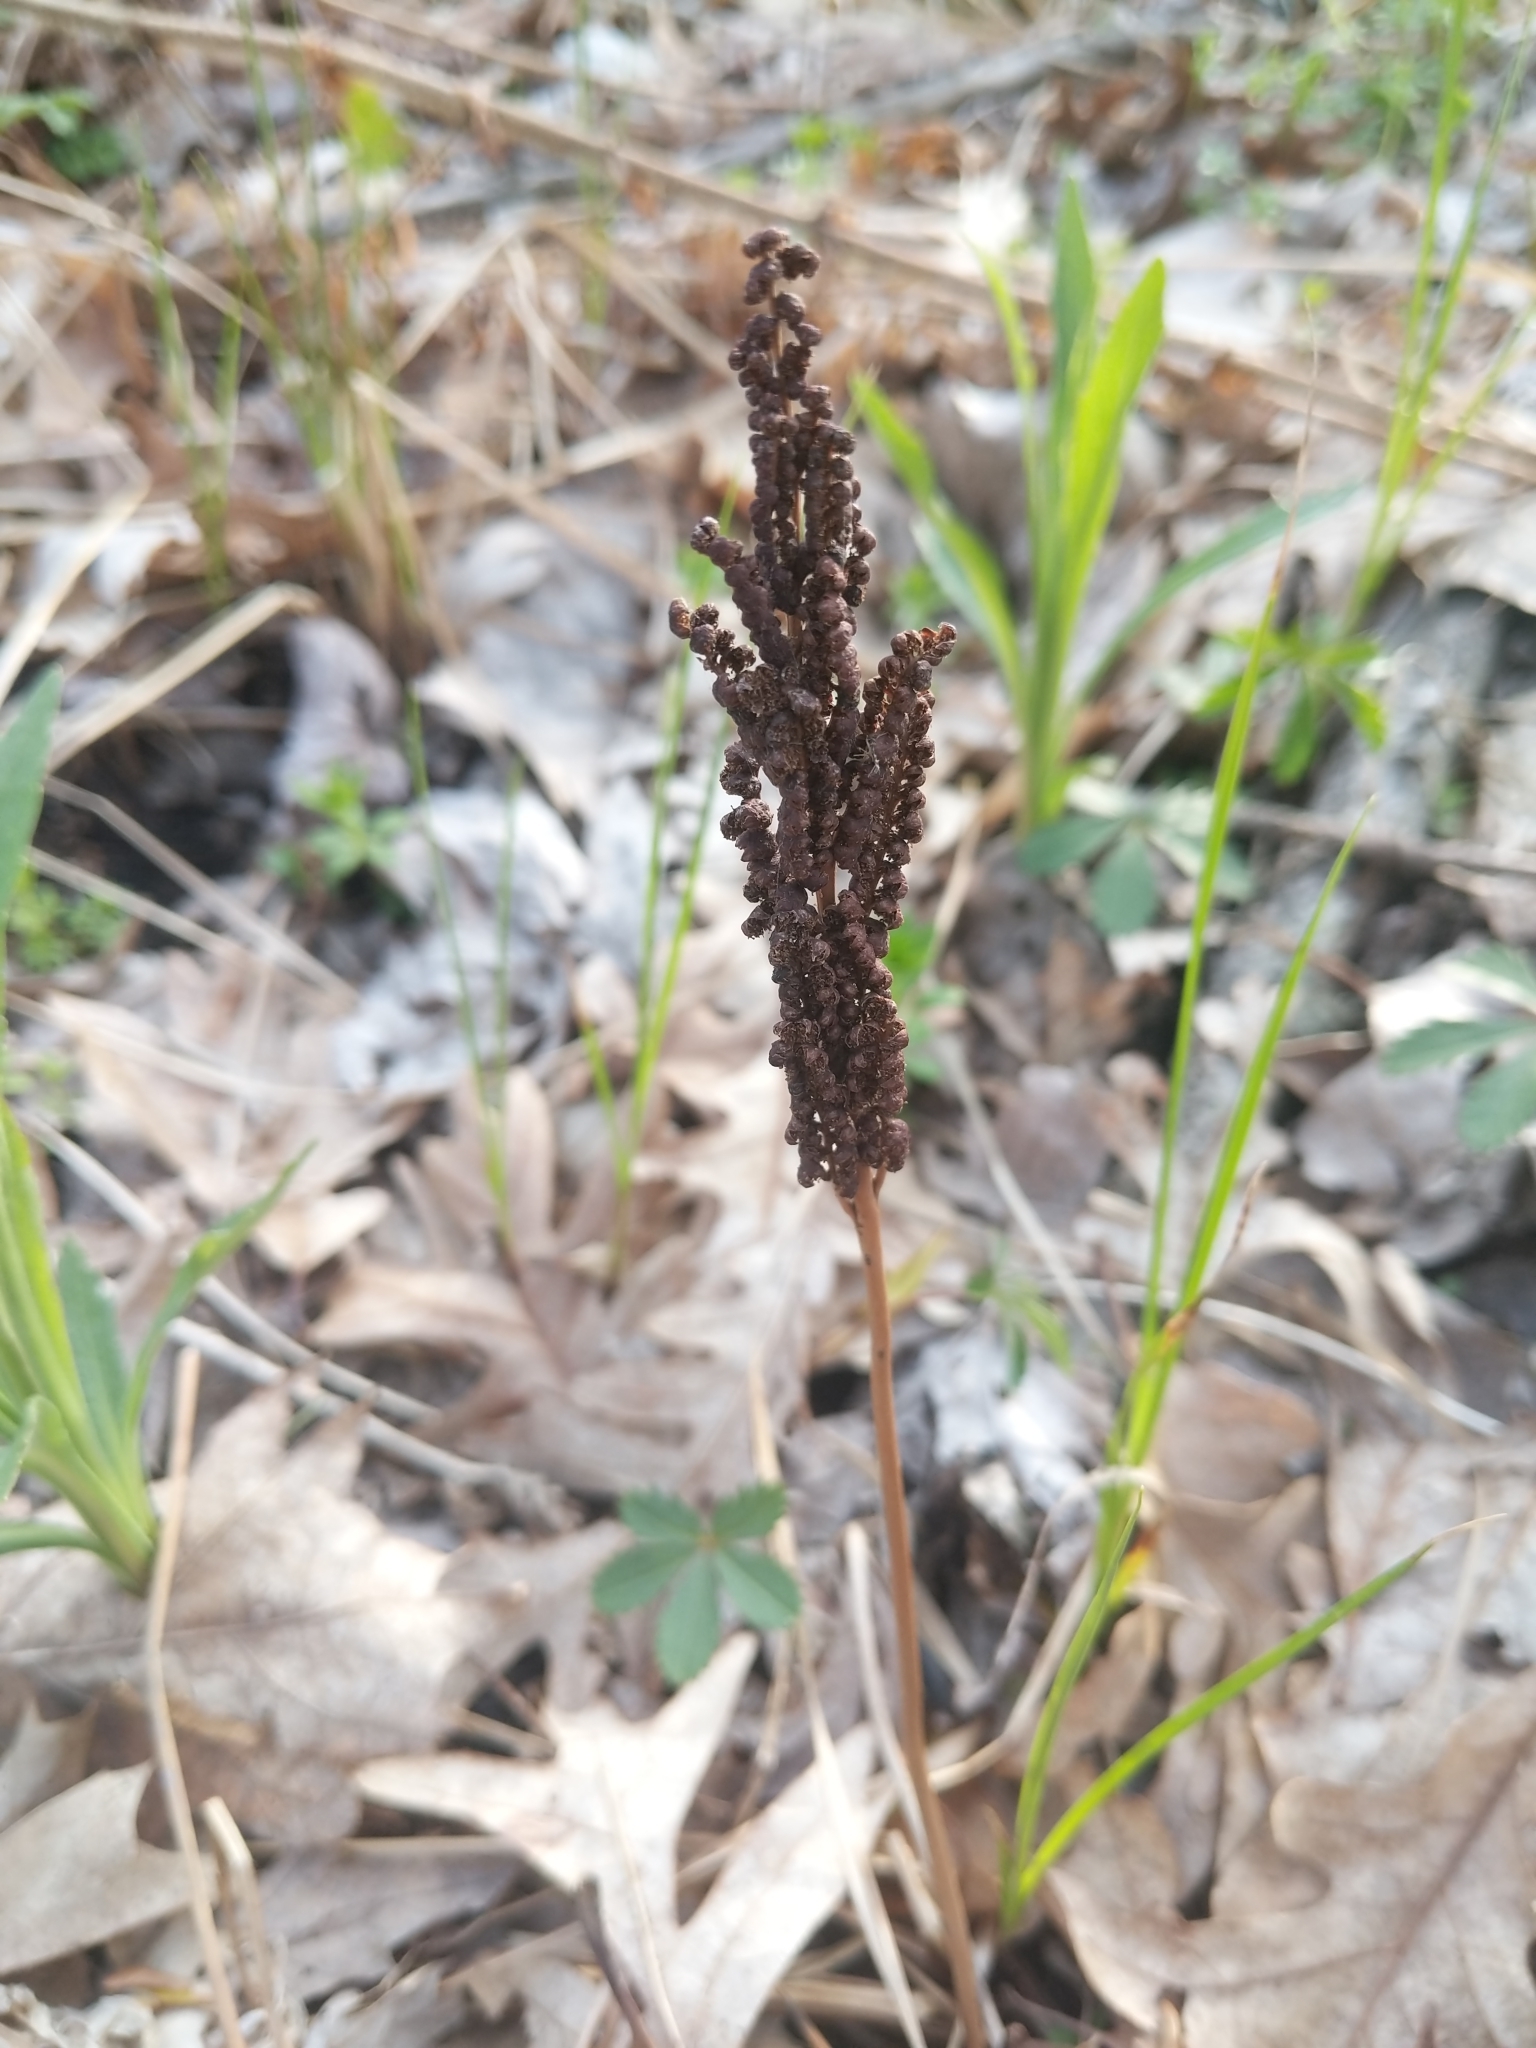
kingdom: Plantae
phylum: Tracheophyta
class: Polypodiopsida
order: Polypodiales
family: Onocleaceae
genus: Onoclea
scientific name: Onoclea sensibilis
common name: Sensitive fern
